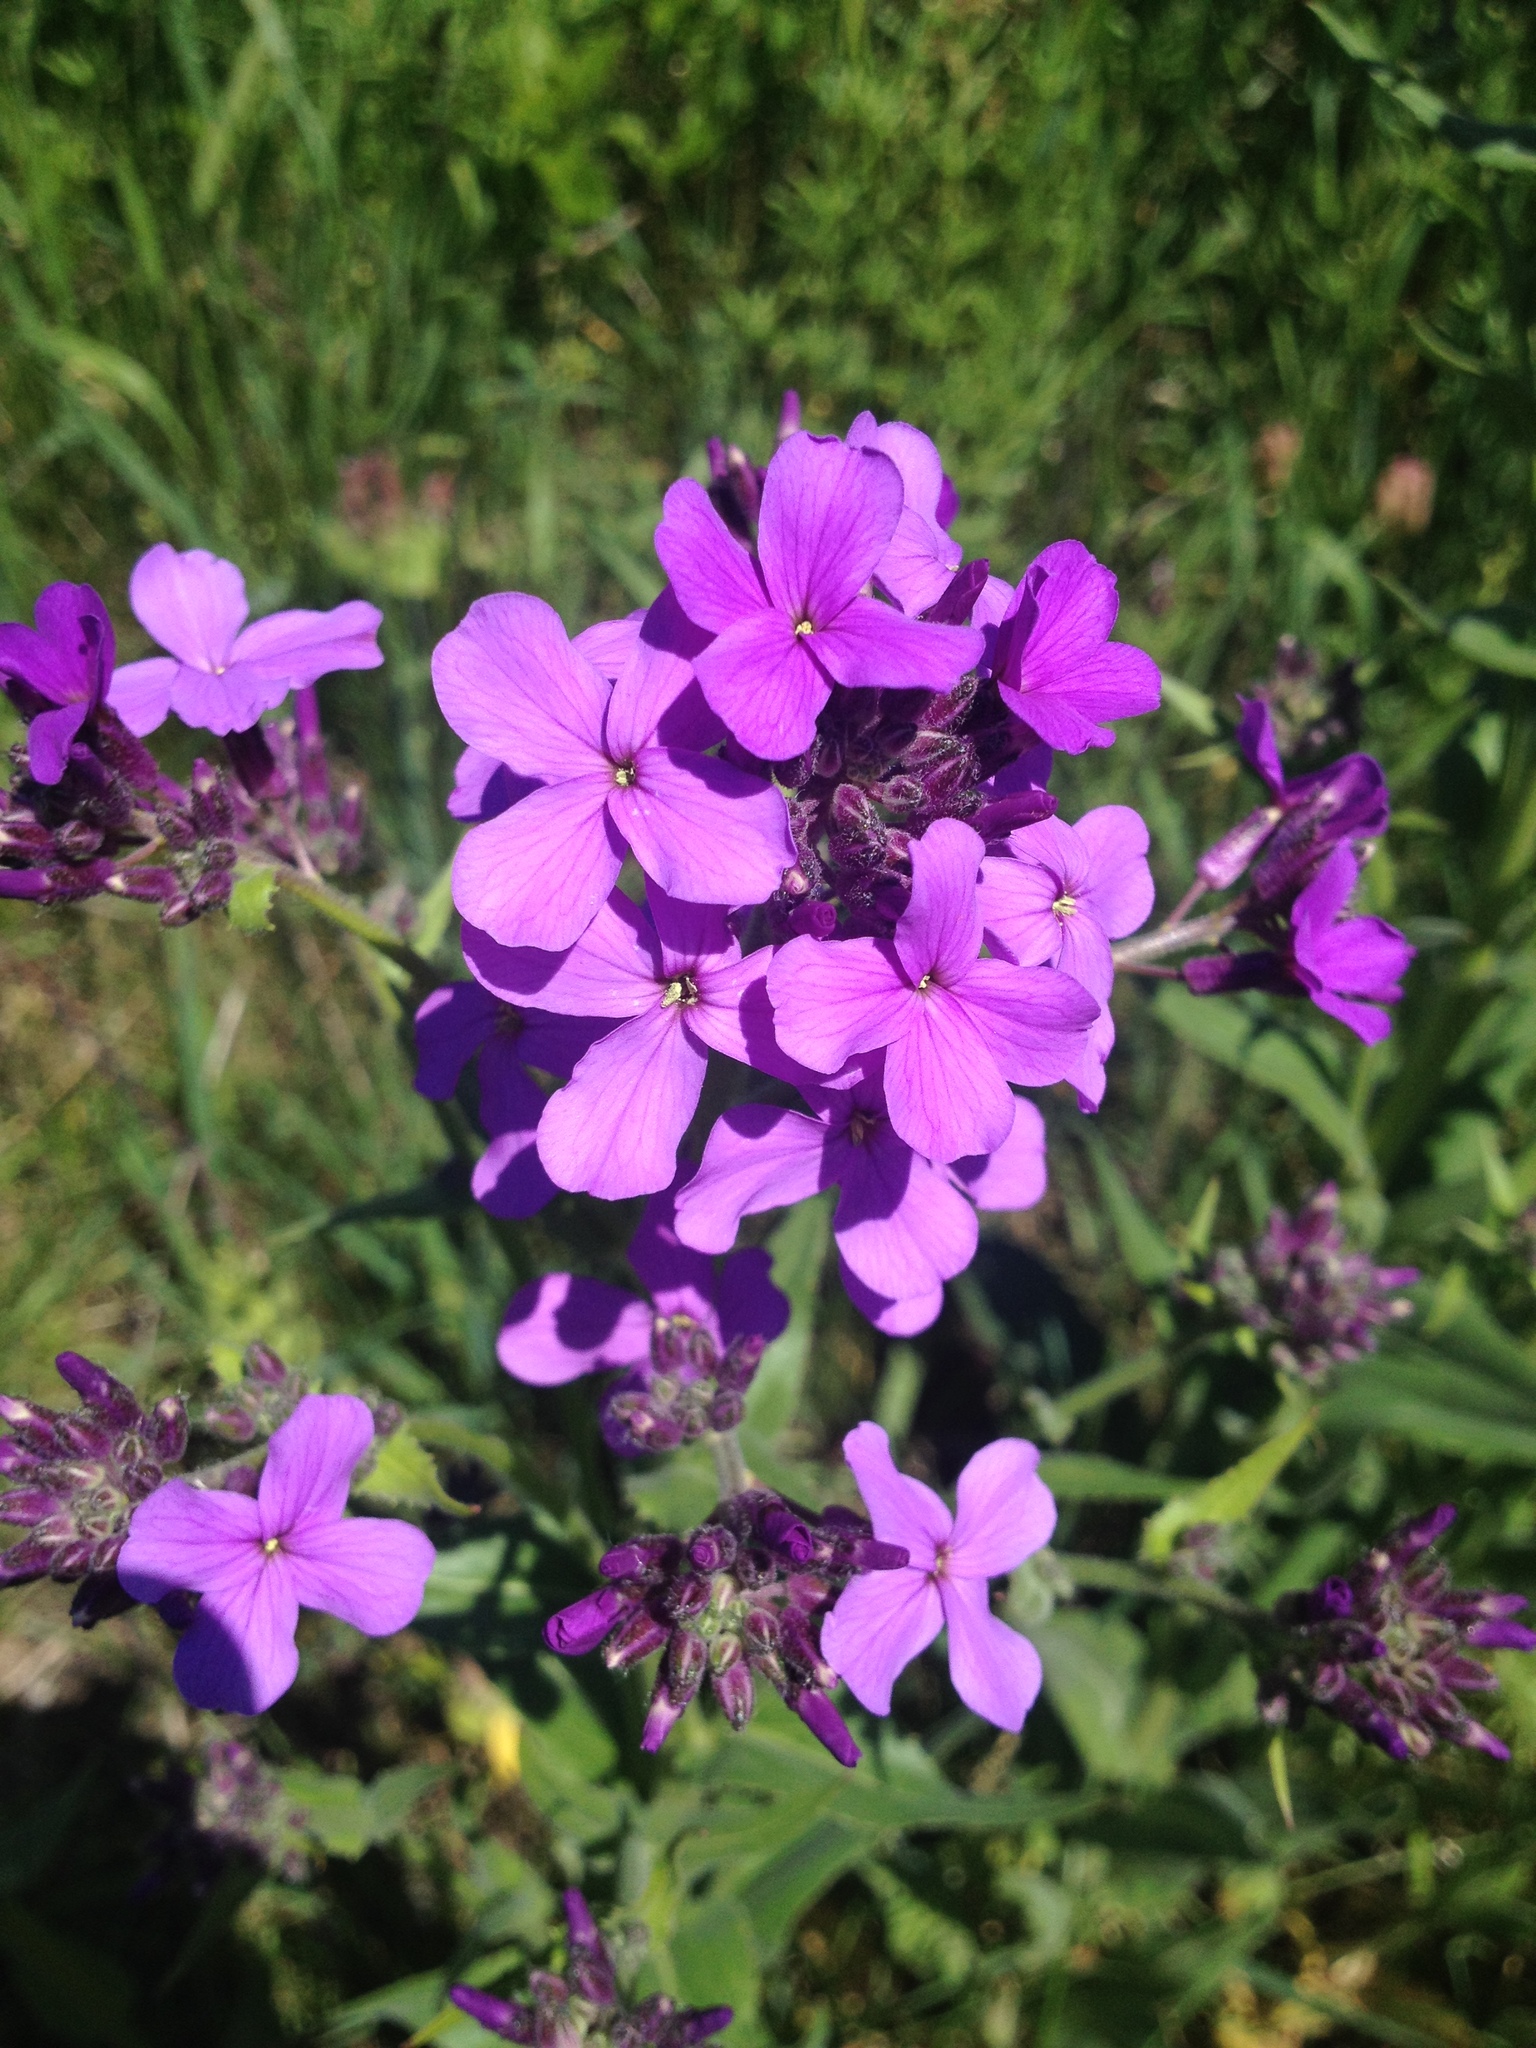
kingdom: Plantae
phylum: Tracheophyta
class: Magnoliopsida
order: Brassicales
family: Brassicaceae
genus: Hesperis
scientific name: Hesperis matronalis
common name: Dame's-violet
